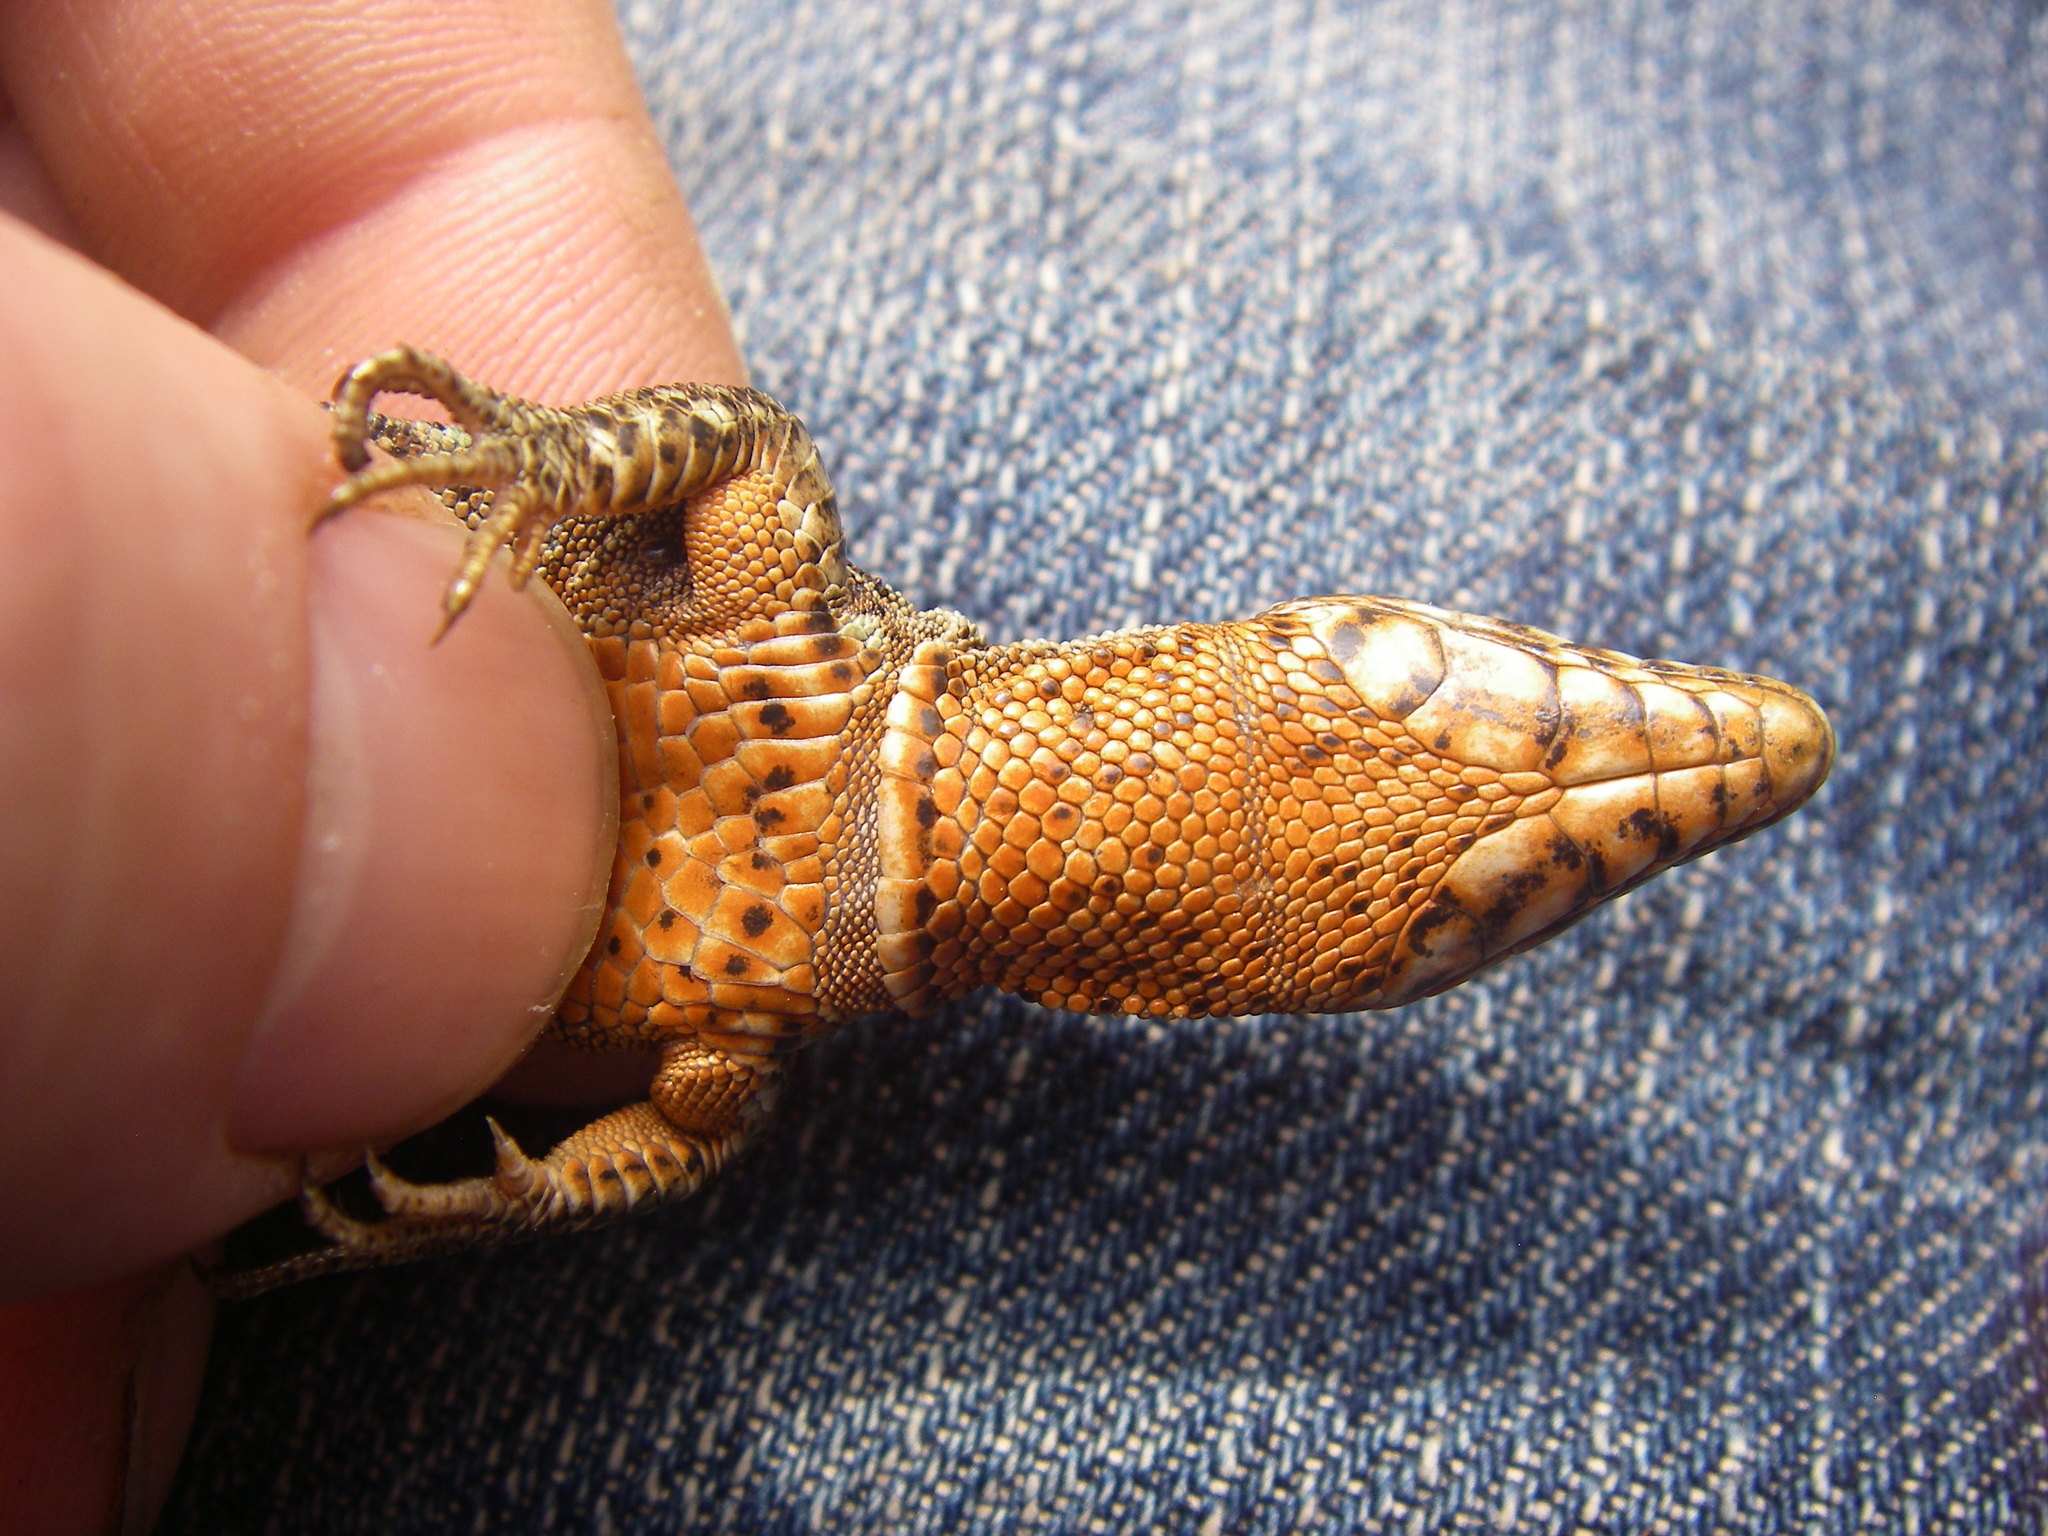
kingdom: Animalia
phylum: Chordata
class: Squamata
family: Lacertidae
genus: Podarcis
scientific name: Podarcis muralis
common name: Common wall lizard
